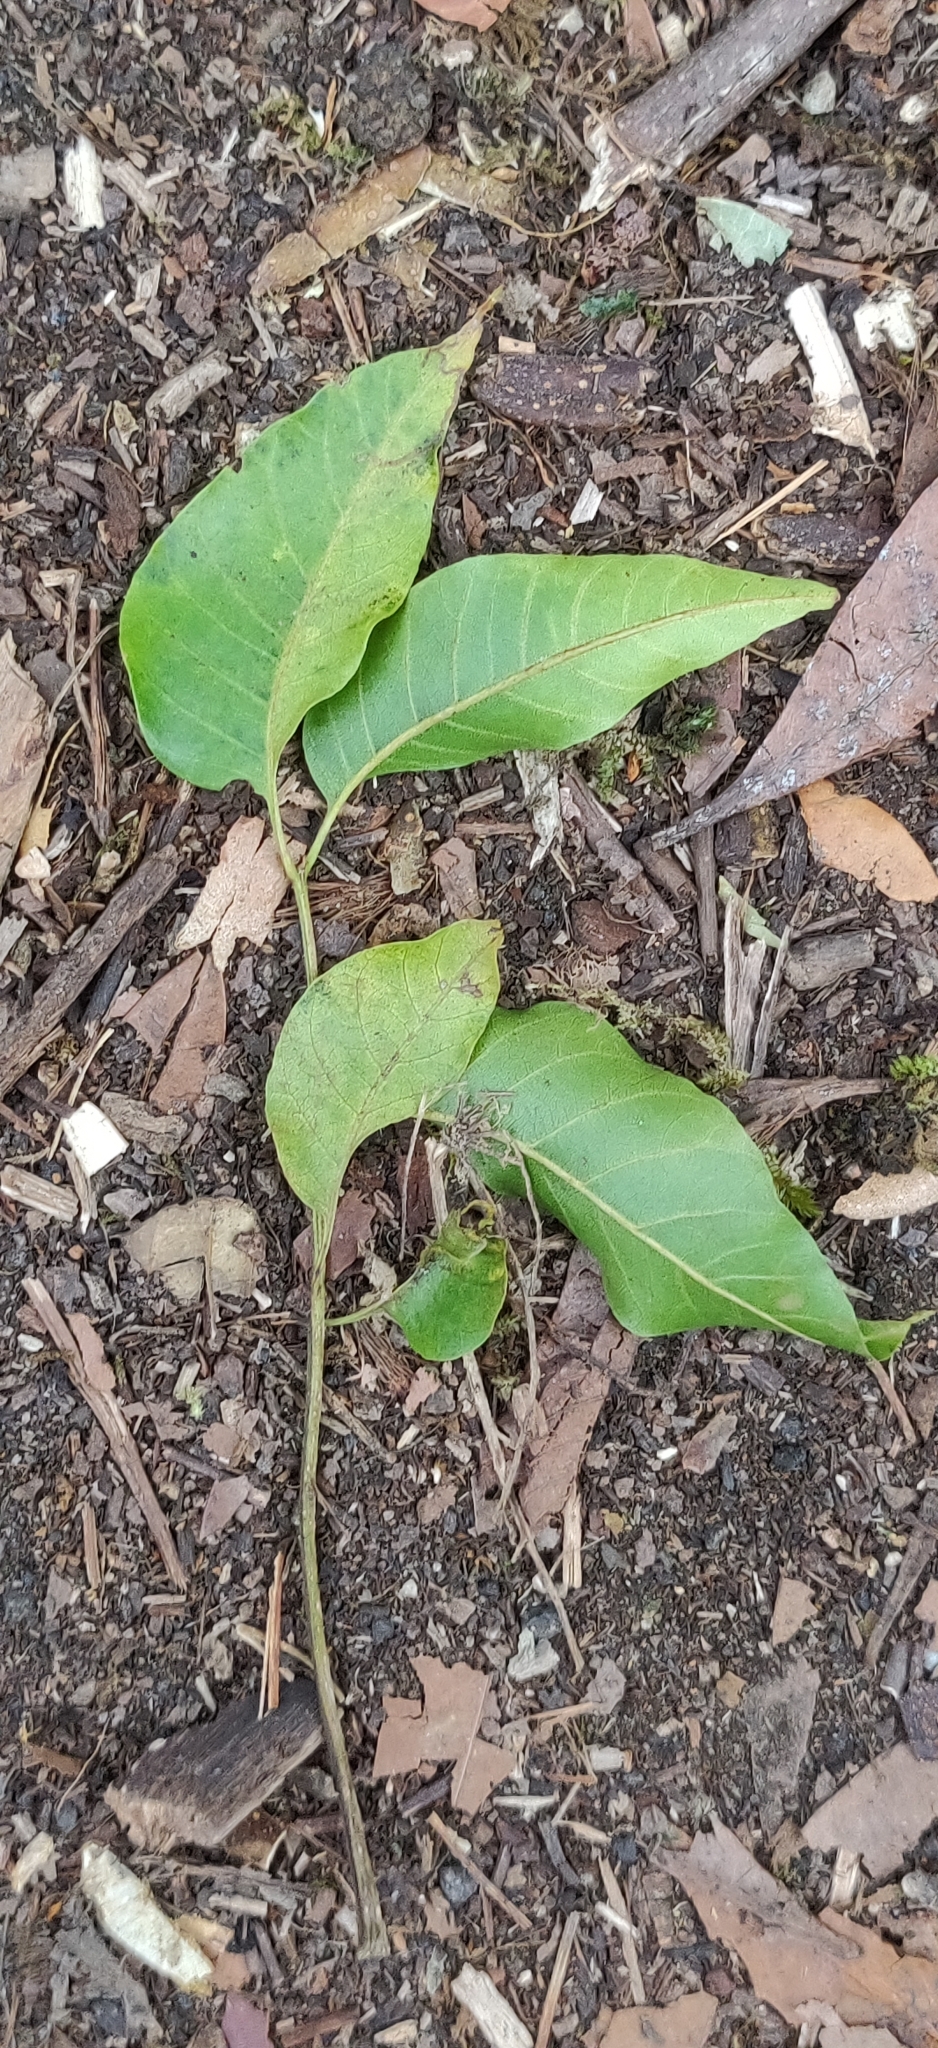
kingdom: Plantae
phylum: Tracheophyta
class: Magnoliopsida
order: Sapindales
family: Meliaceae
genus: Toona
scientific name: Toona ciliata
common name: Australian redcedar
